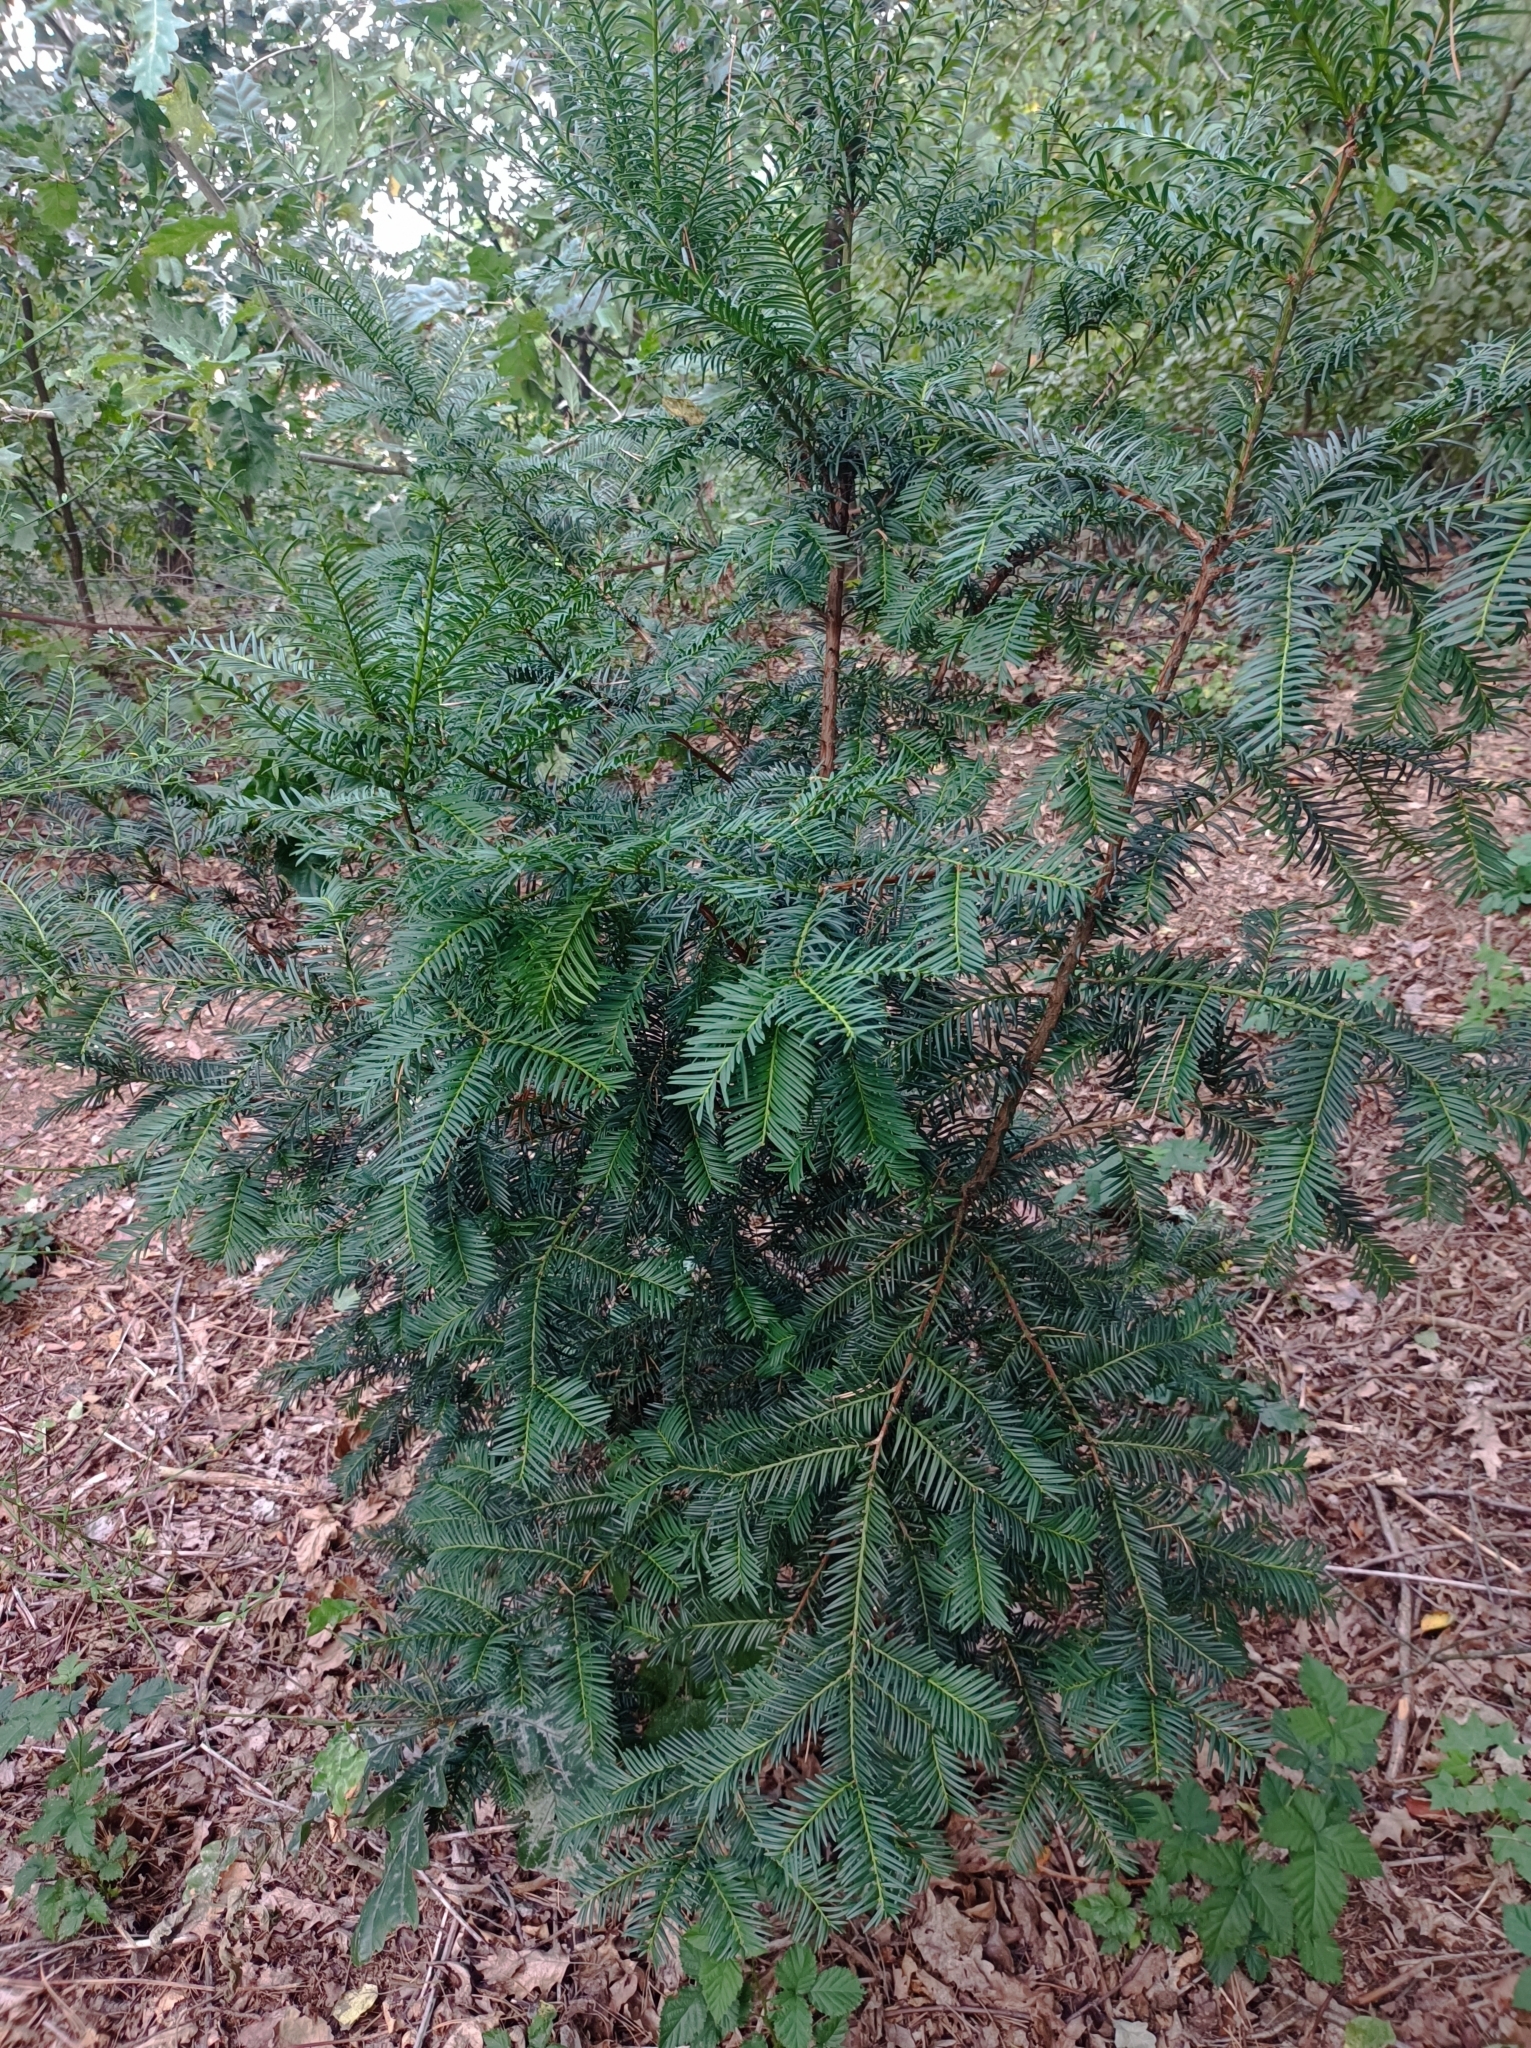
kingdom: Plantae
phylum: Tracheophyta
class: Pinopsida
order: Pinales
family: Taxaceae
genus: Taxus
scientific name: Taxus baccata
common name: Yew
